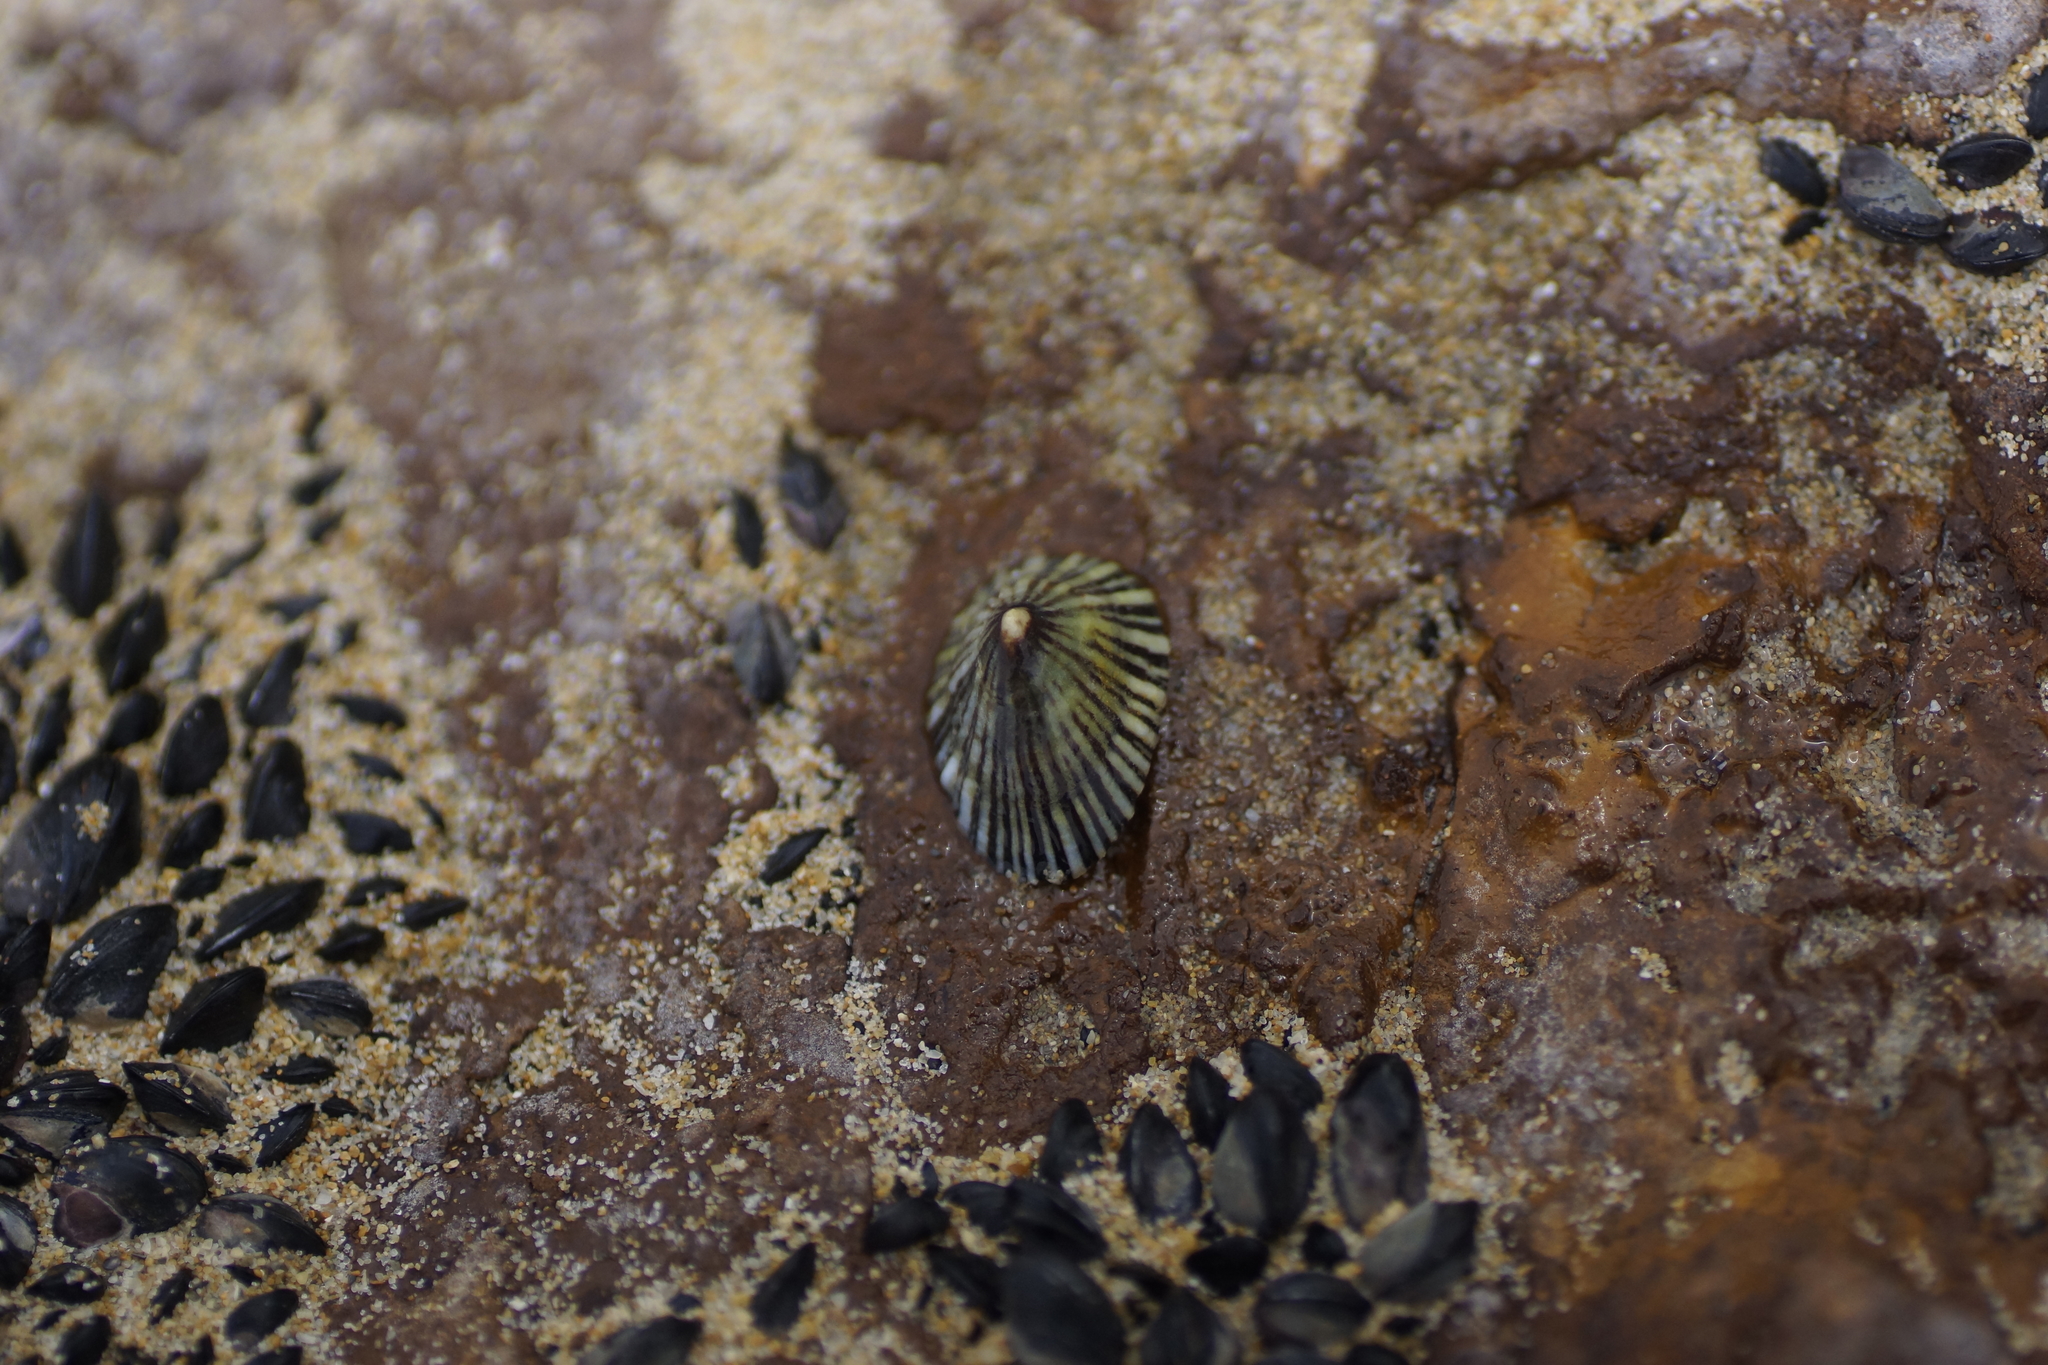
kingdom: Animalia
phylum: Mollusca
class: Gastropoda
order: Siphonariida
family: Siphonariidae
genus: Siphonaria
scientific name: Siphonaria funiculata
